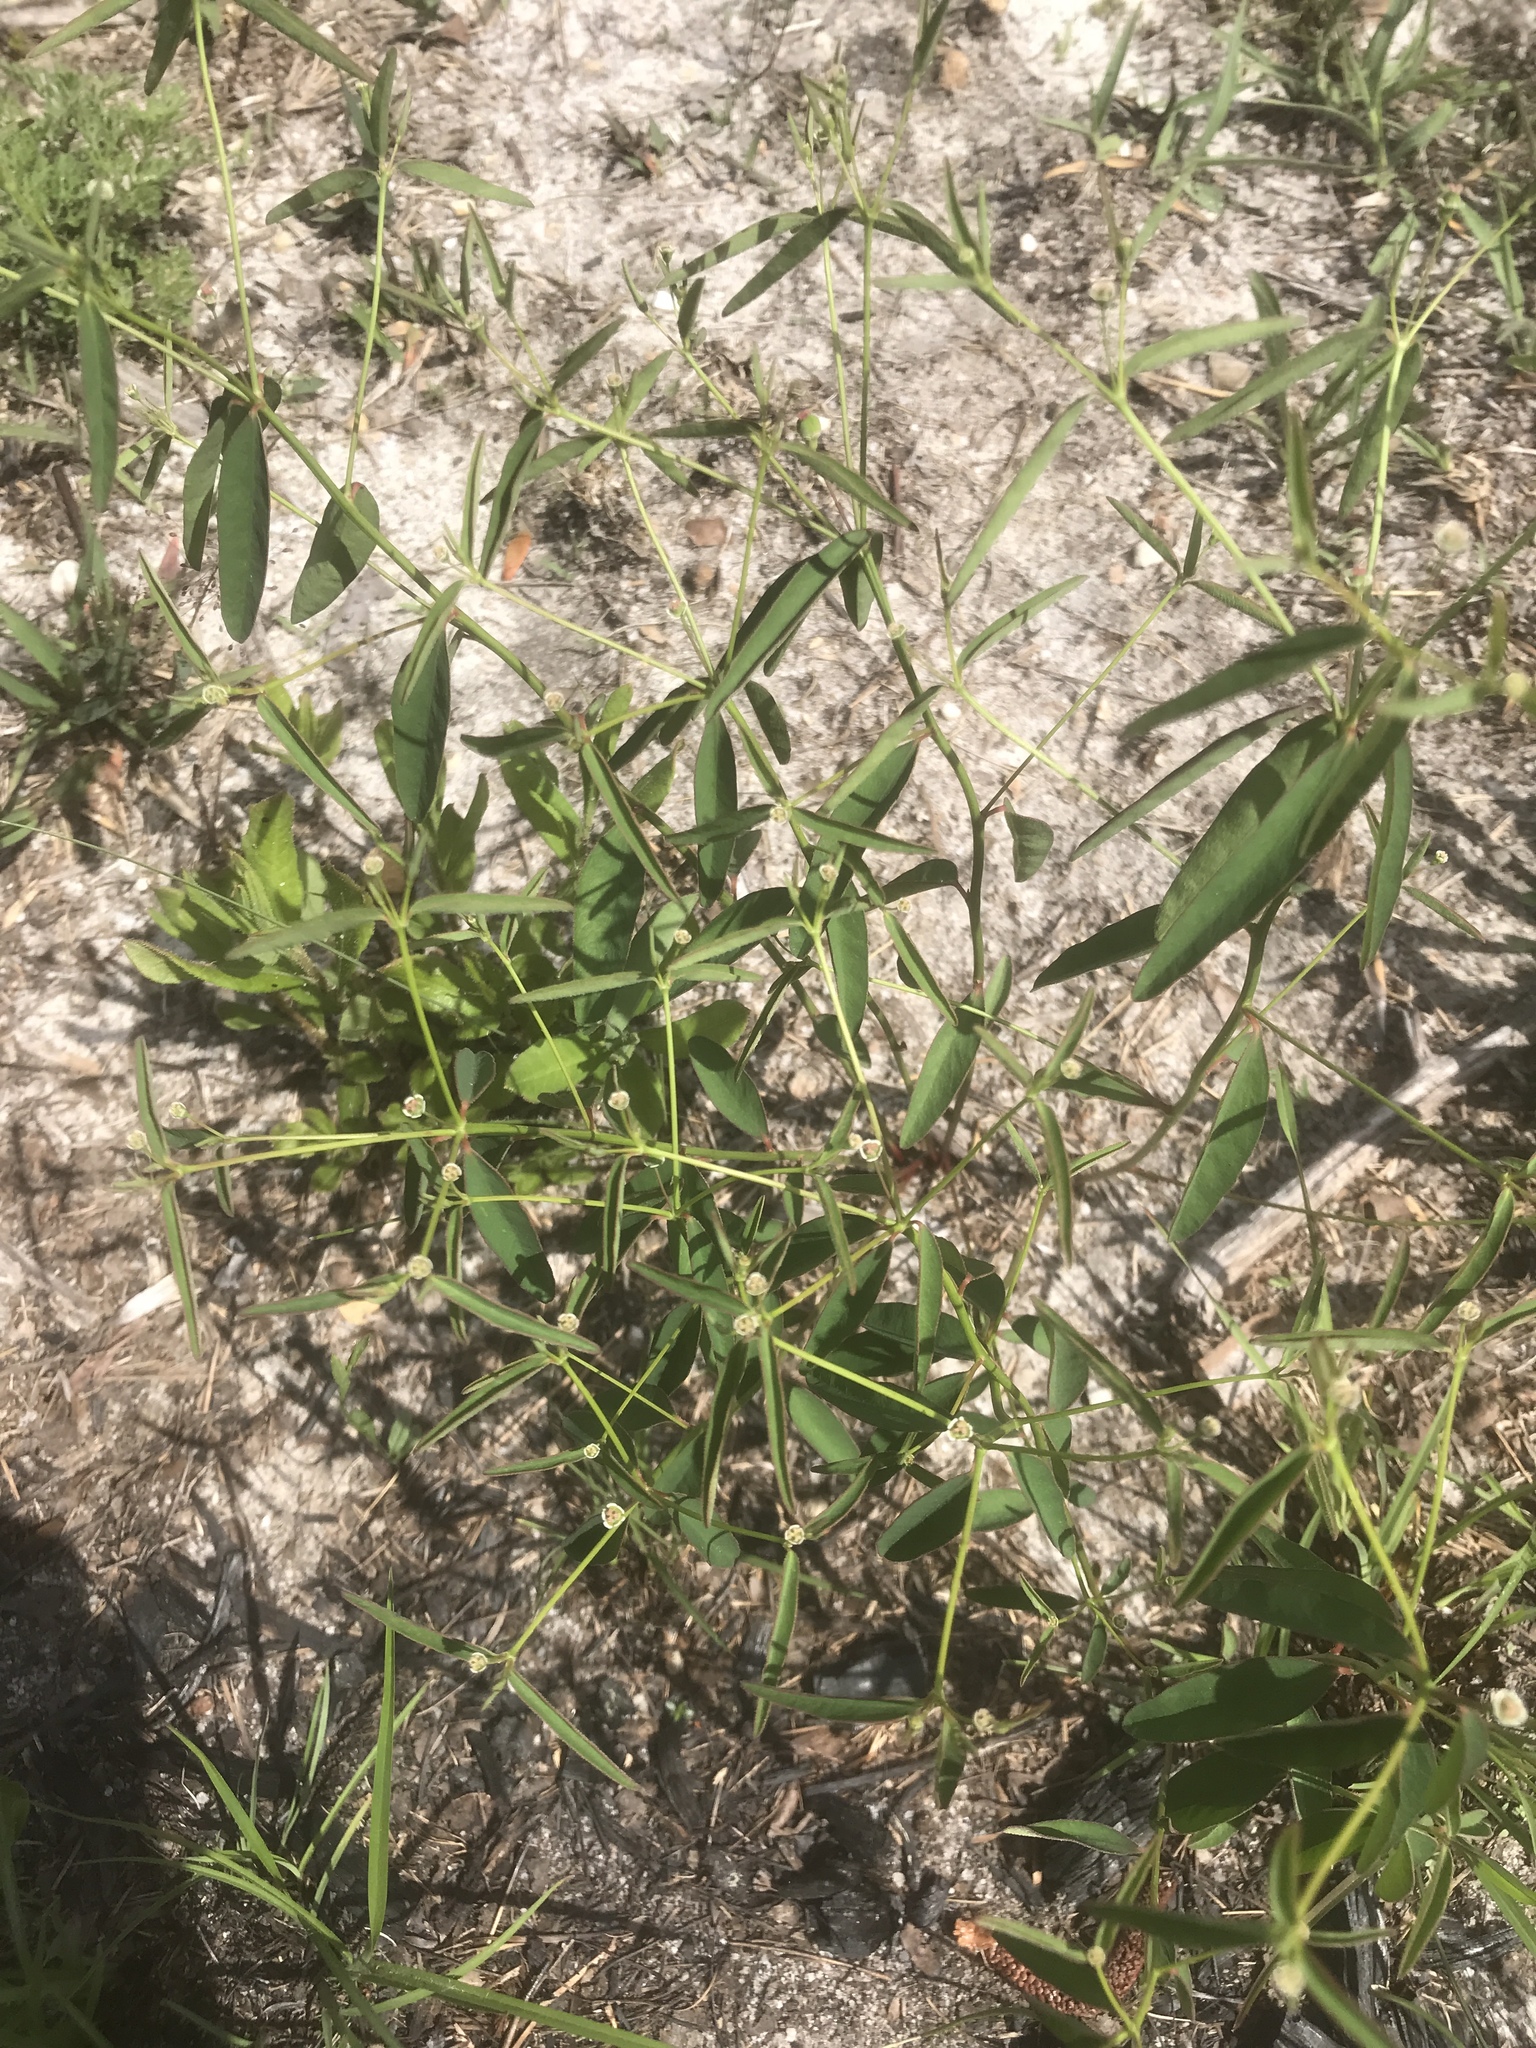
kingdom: Plantae
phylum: Tracheophyta
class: Magnoliopsida
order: Malpighiales
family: Euphorbiaceae
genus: Euphorbia
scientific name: Euphorbia curtisii
